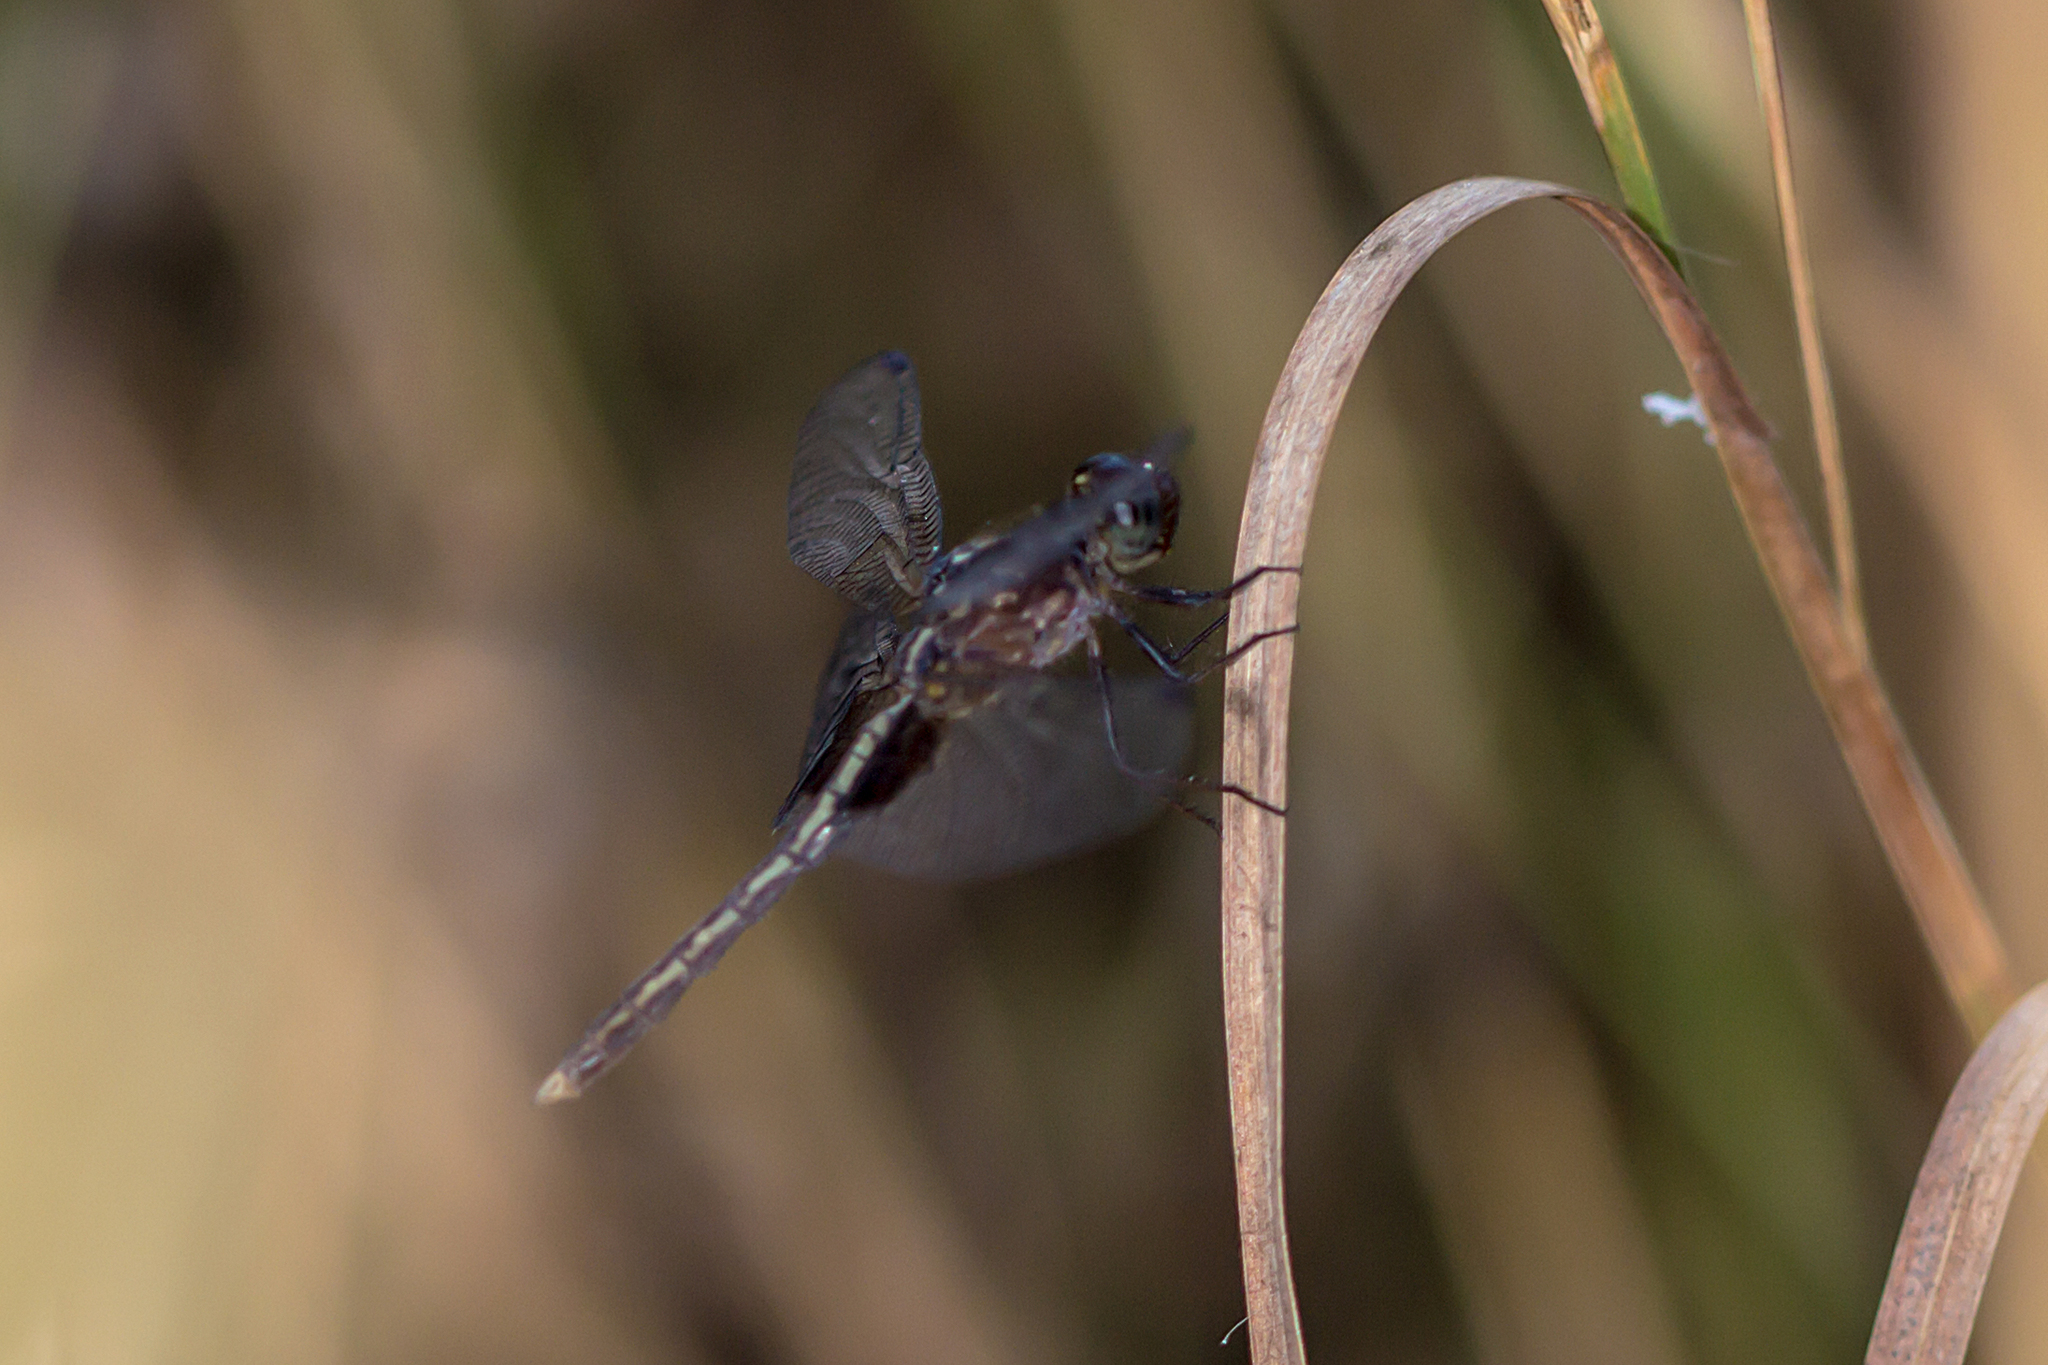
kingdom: Animalia
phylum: Arthropoda
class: Insecta
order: Odonata
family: Libellulidae
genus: Neurothemis
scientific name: Neurothemis oligoneura
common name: Spotted grasshawk
